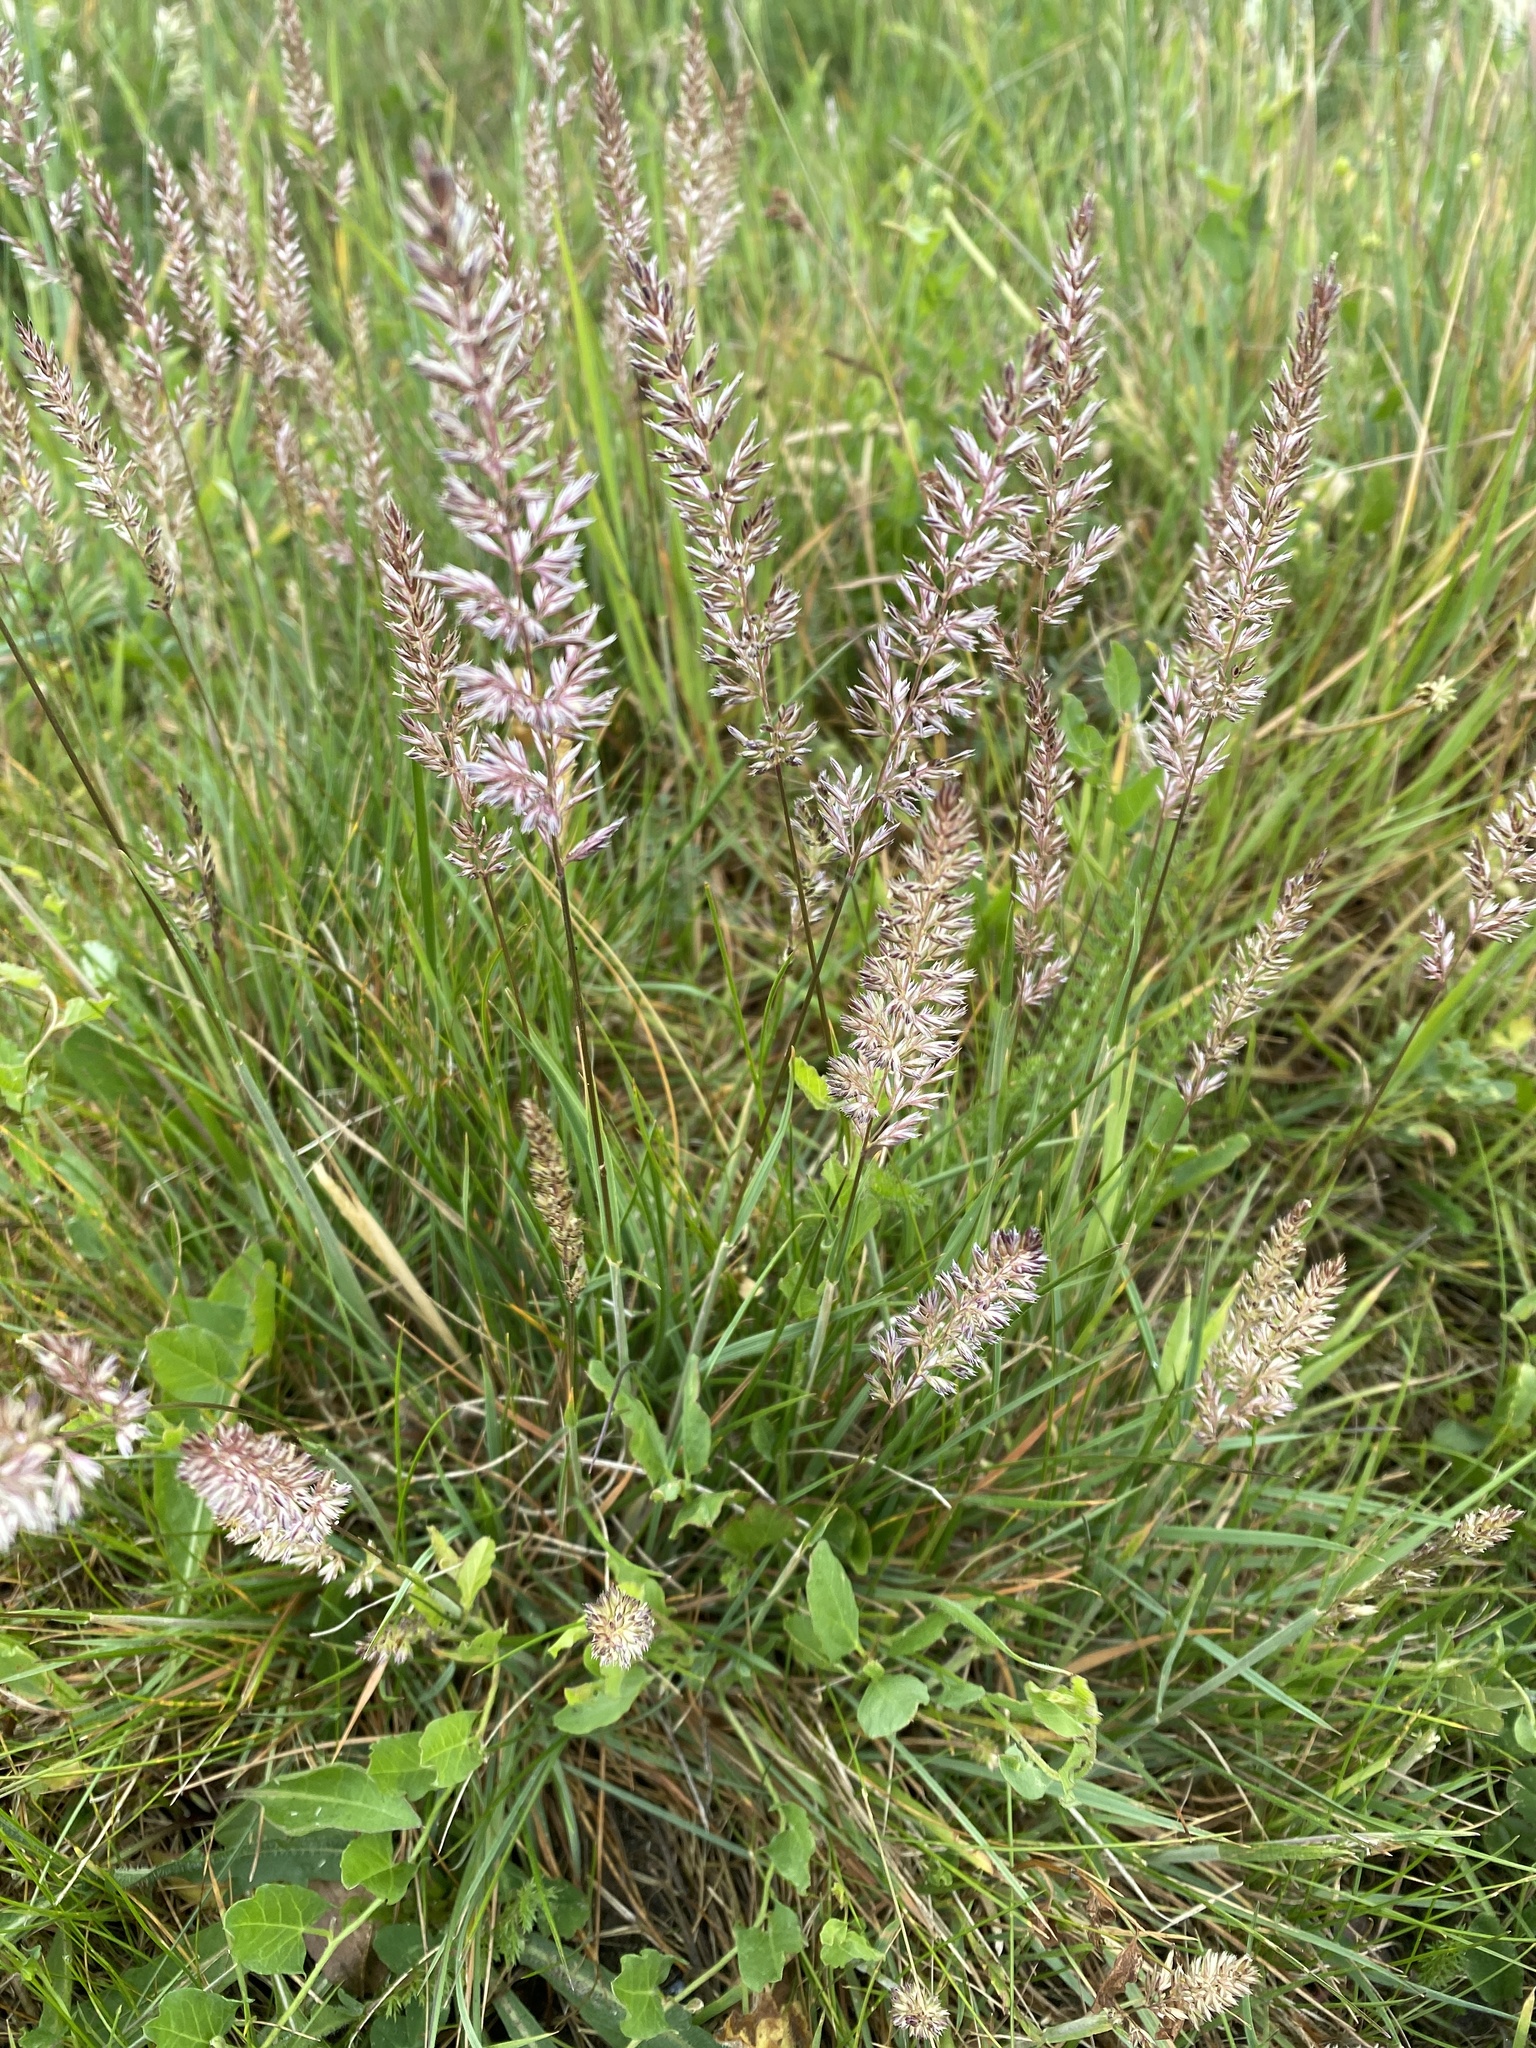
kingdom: Plantae
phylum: Tracheophyta
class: Liliopsida
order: Poales
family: Poaceae
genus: Koeleria
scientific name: Koeleria macrantha
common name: Crested hair-grass
